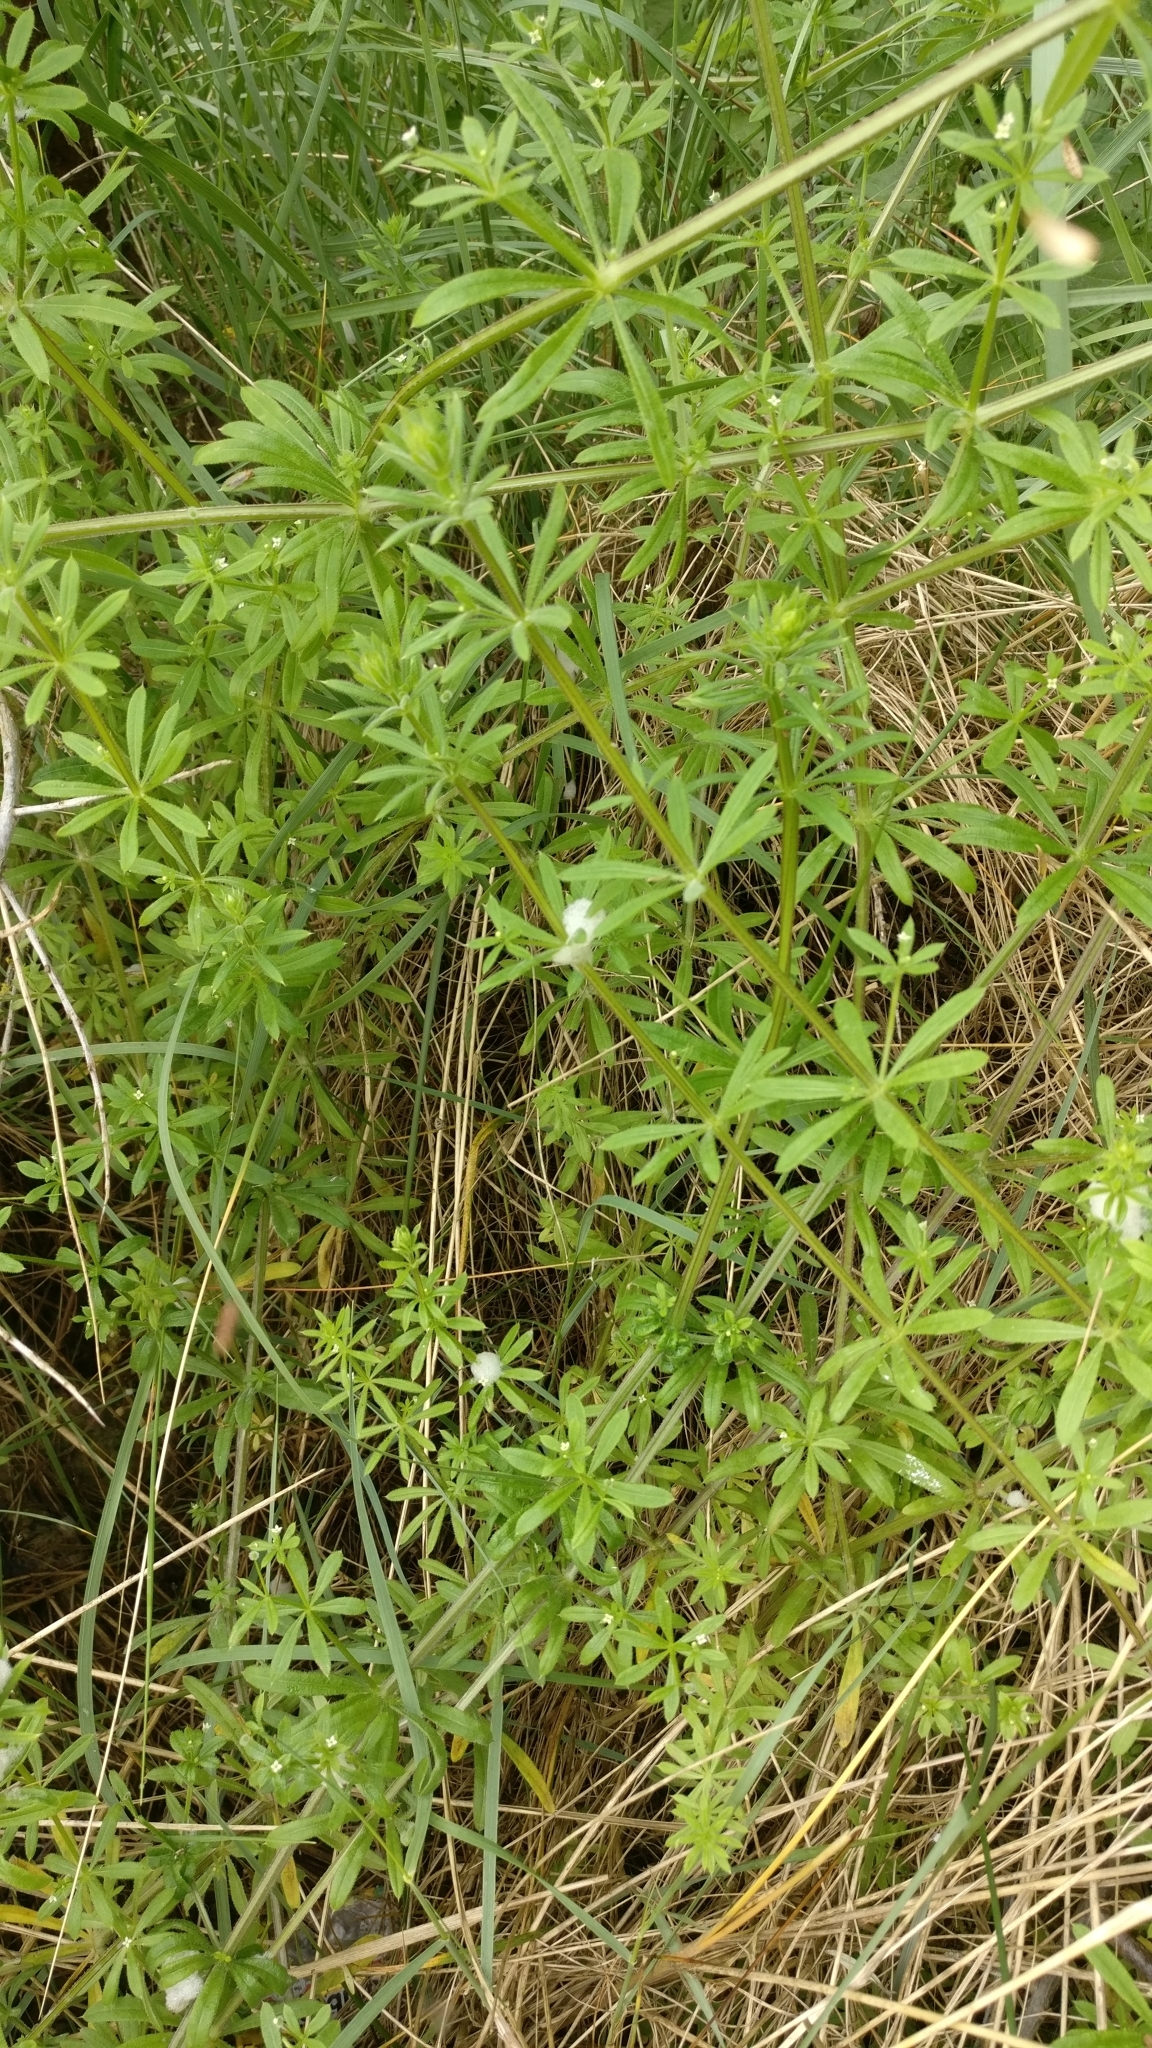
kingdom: Plantae
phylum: Tracheophyta
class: Magnoliopsida
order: Gentianales
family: Rubiaceae
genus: Galium
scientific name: Galium aparine
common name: Cleavers
